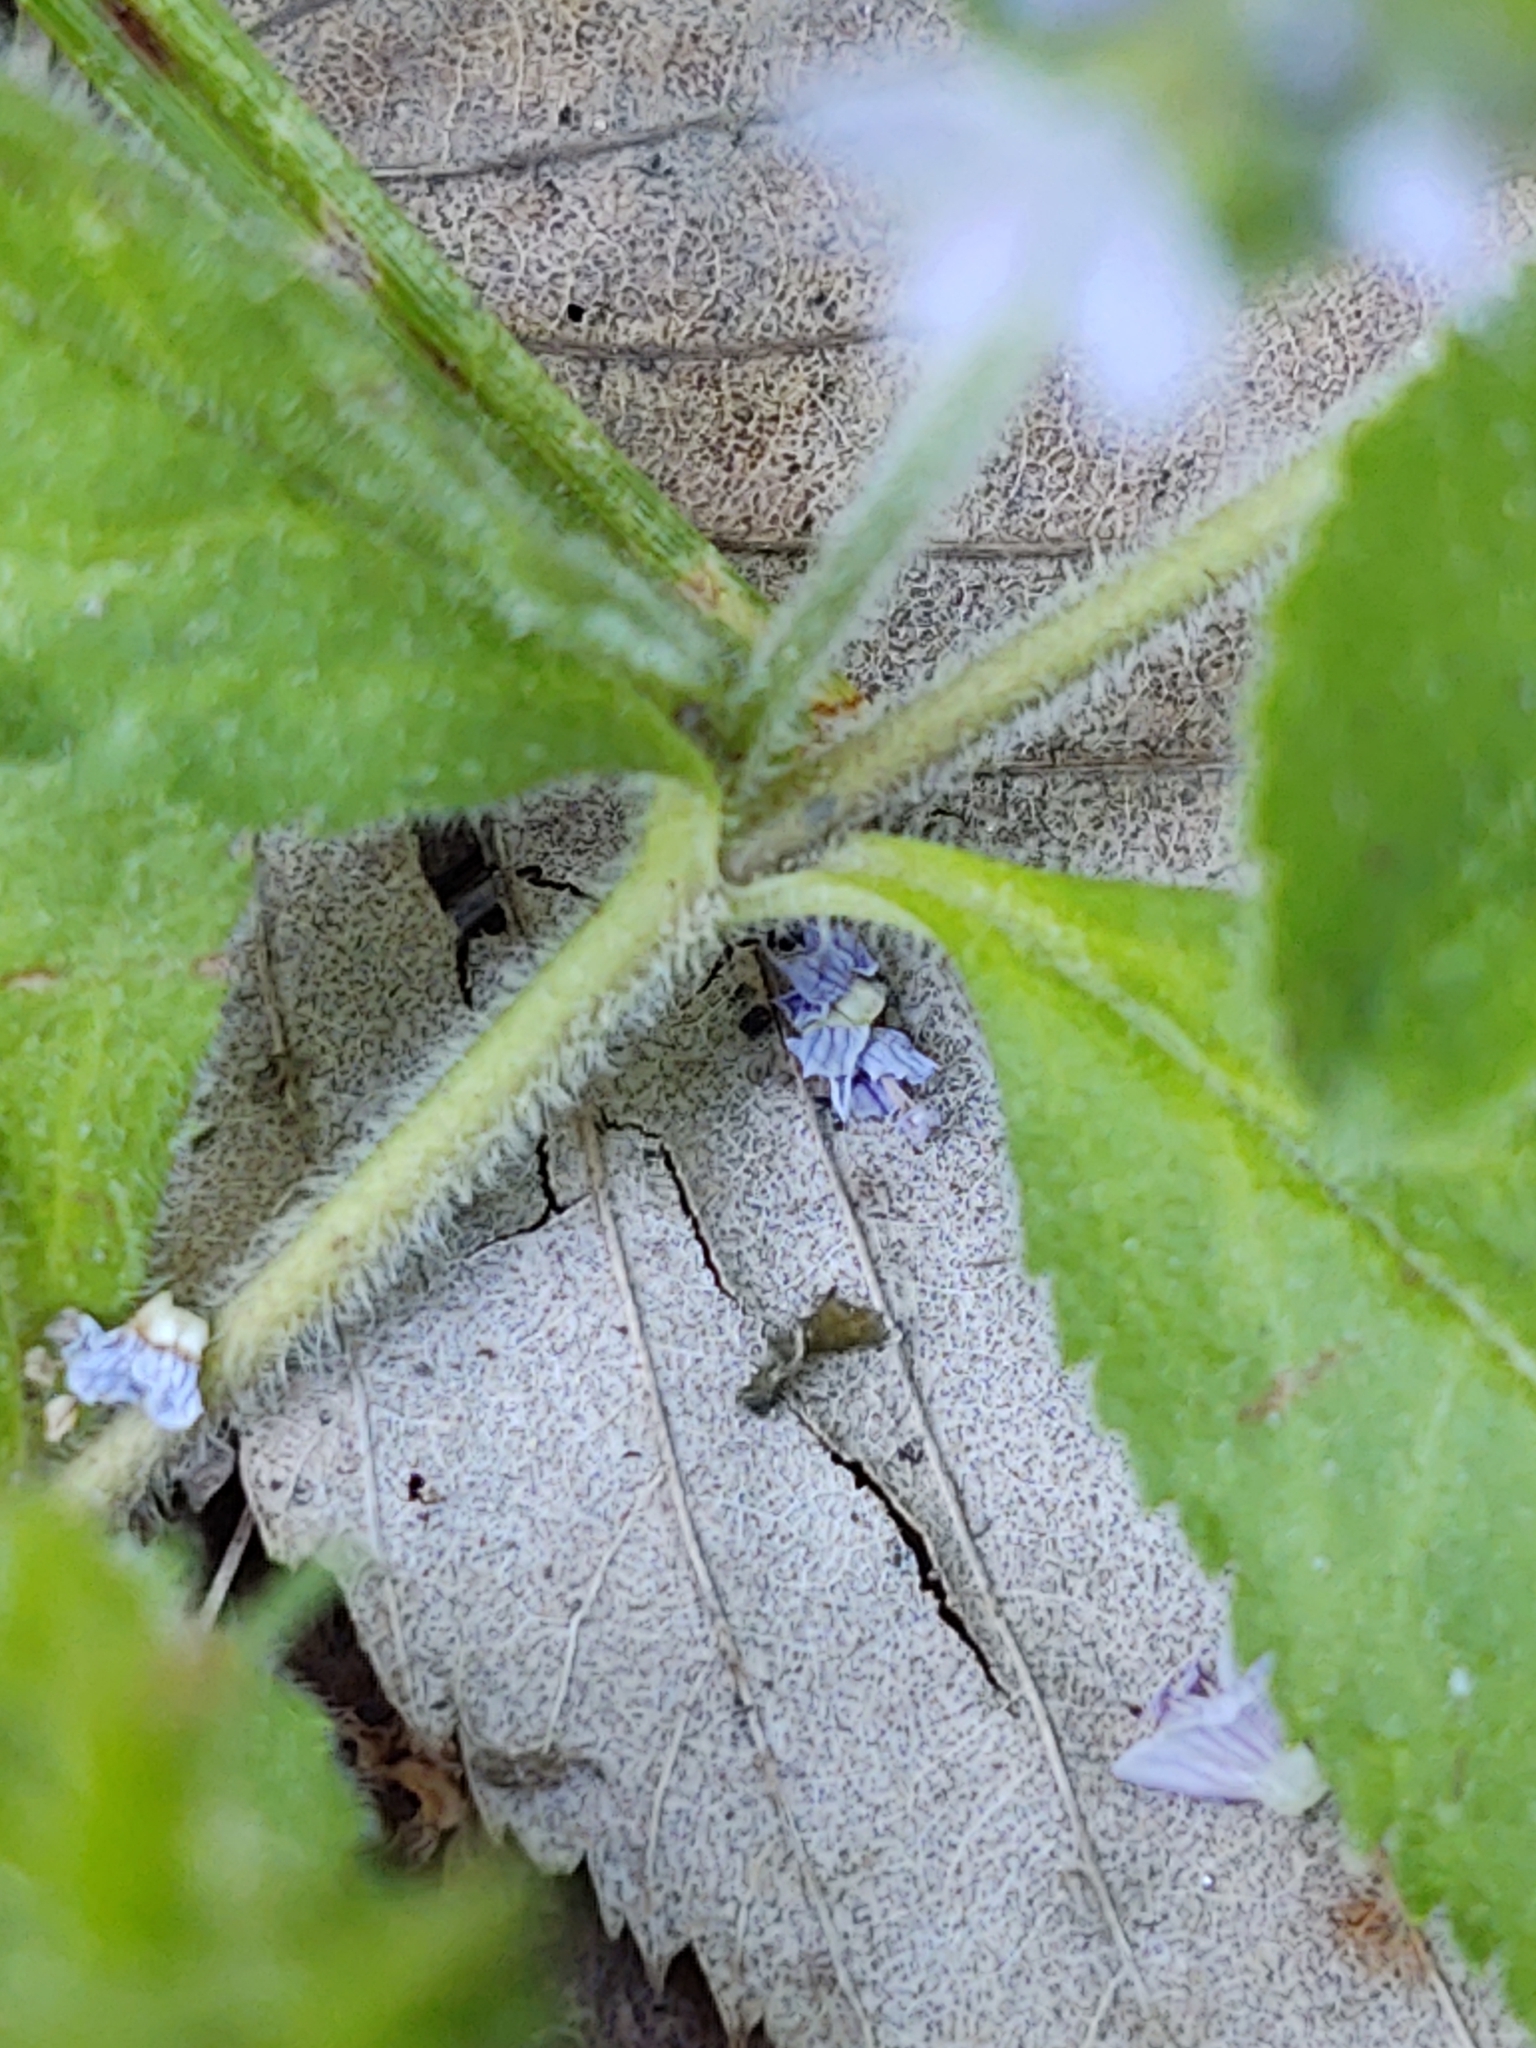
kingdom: Plantae
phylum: Tracheophyta
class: Magnoliopsida
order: Lamiales
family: Plantaginaceae
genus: Veronica
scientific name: Veronica officinalis
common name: Common speedwell
